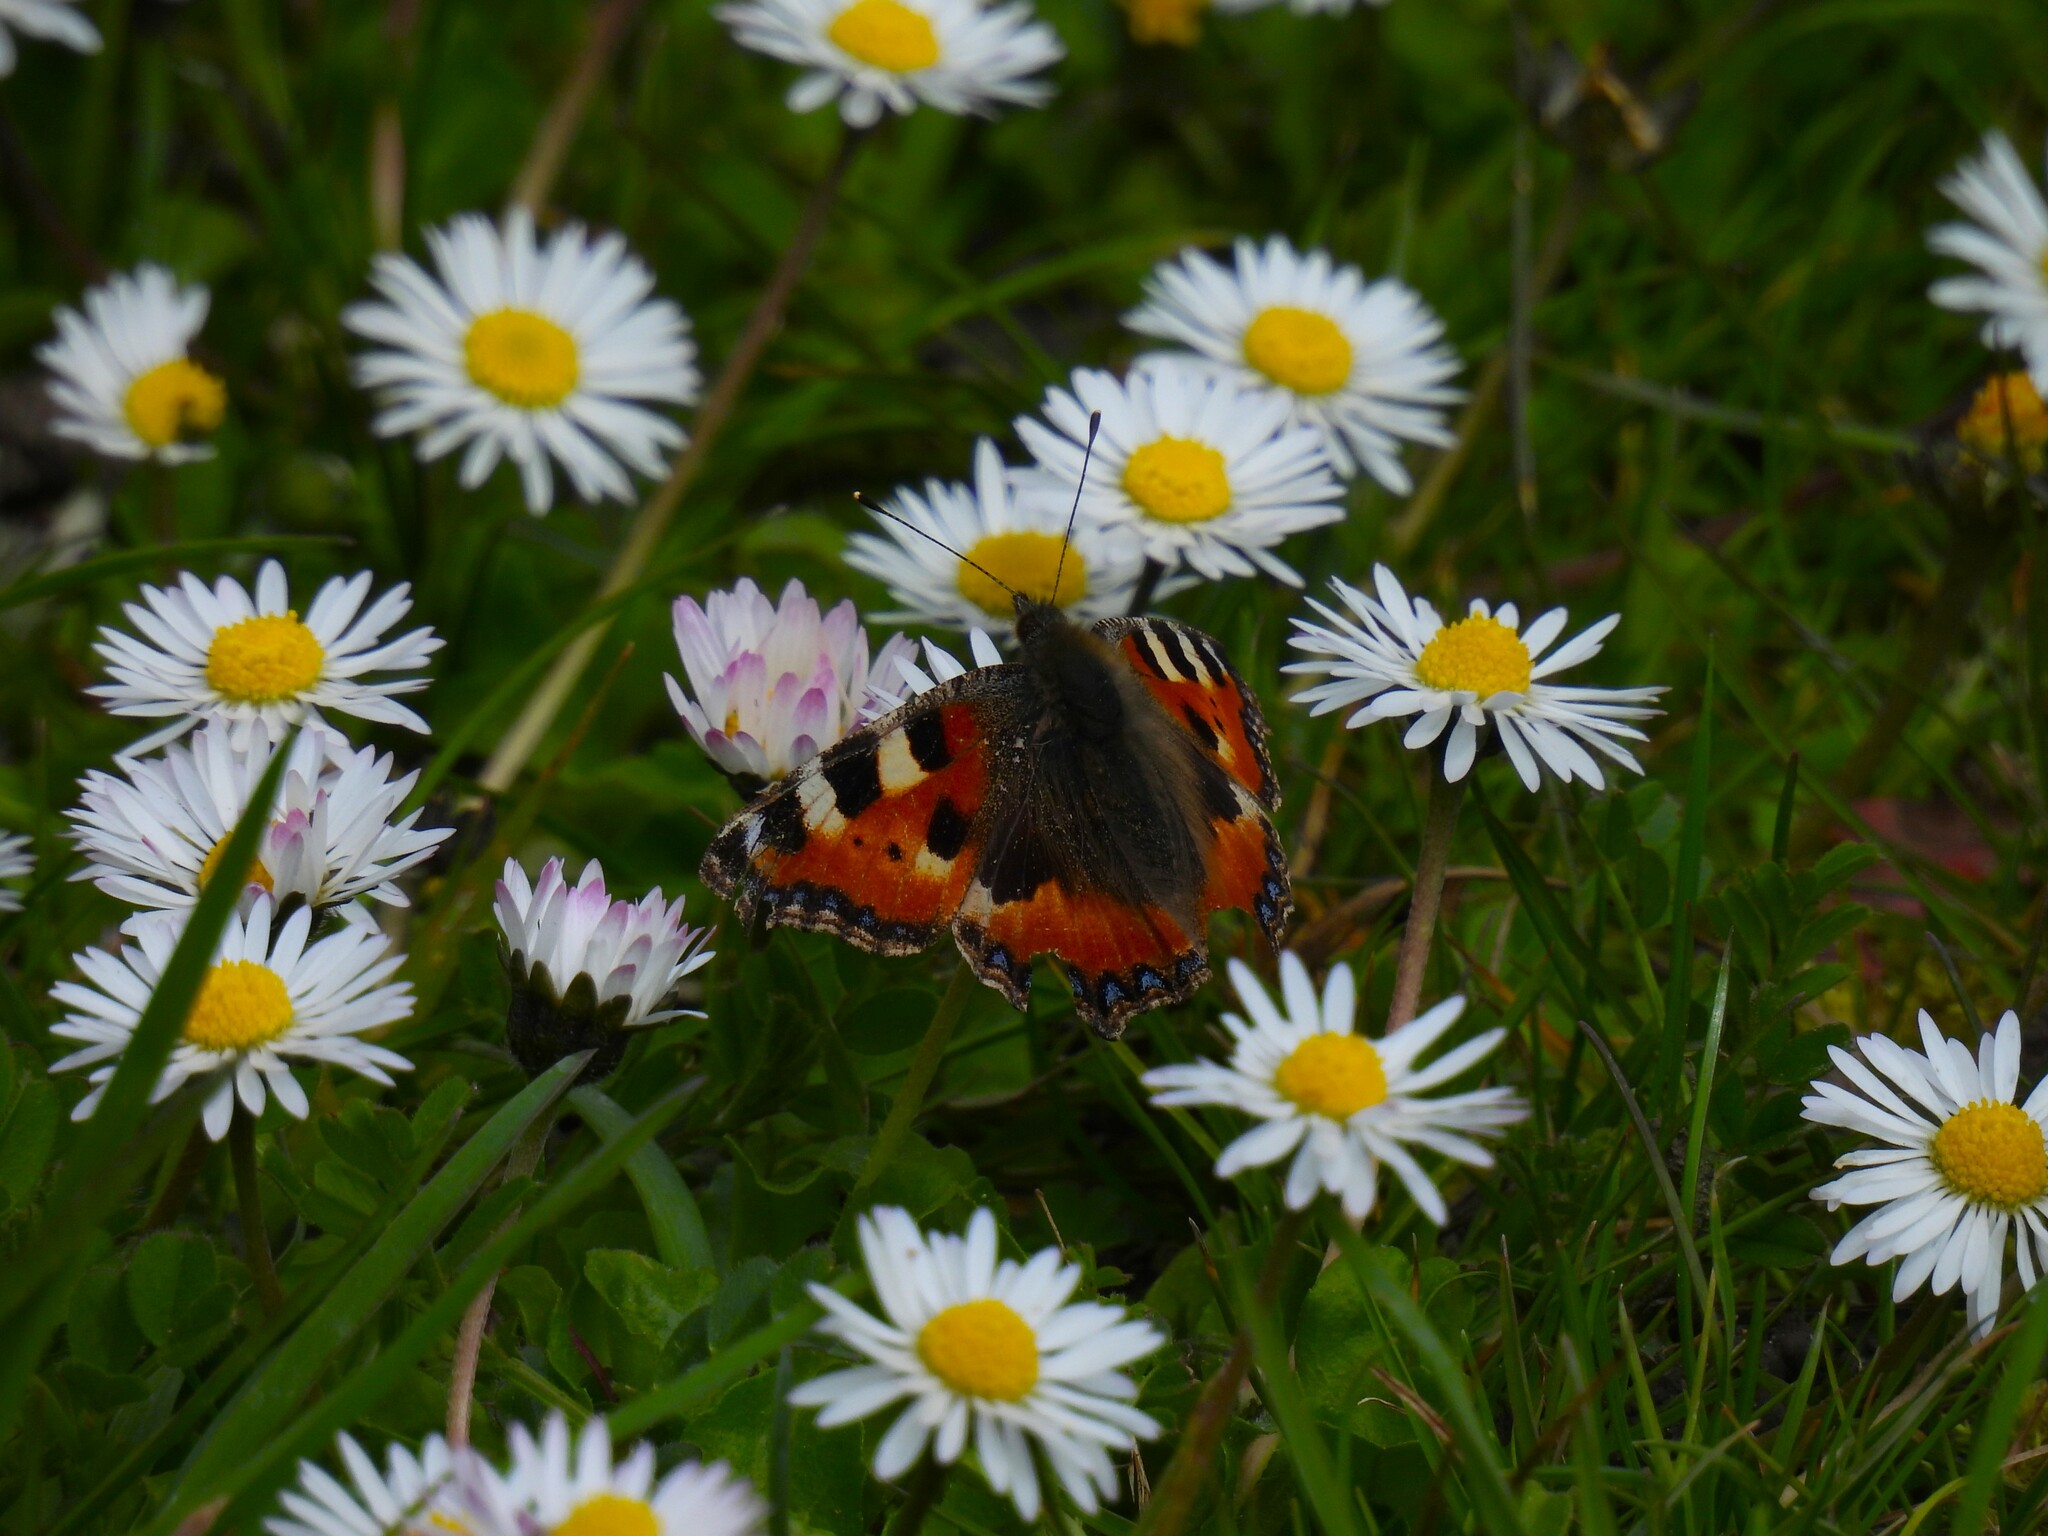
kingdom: Animalia
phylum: Arthropoda
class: Insecta
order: Lepidoptera
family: Nymphalidae
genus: Aglais
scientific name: Aglais urticae
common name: Small tortoiseshell
